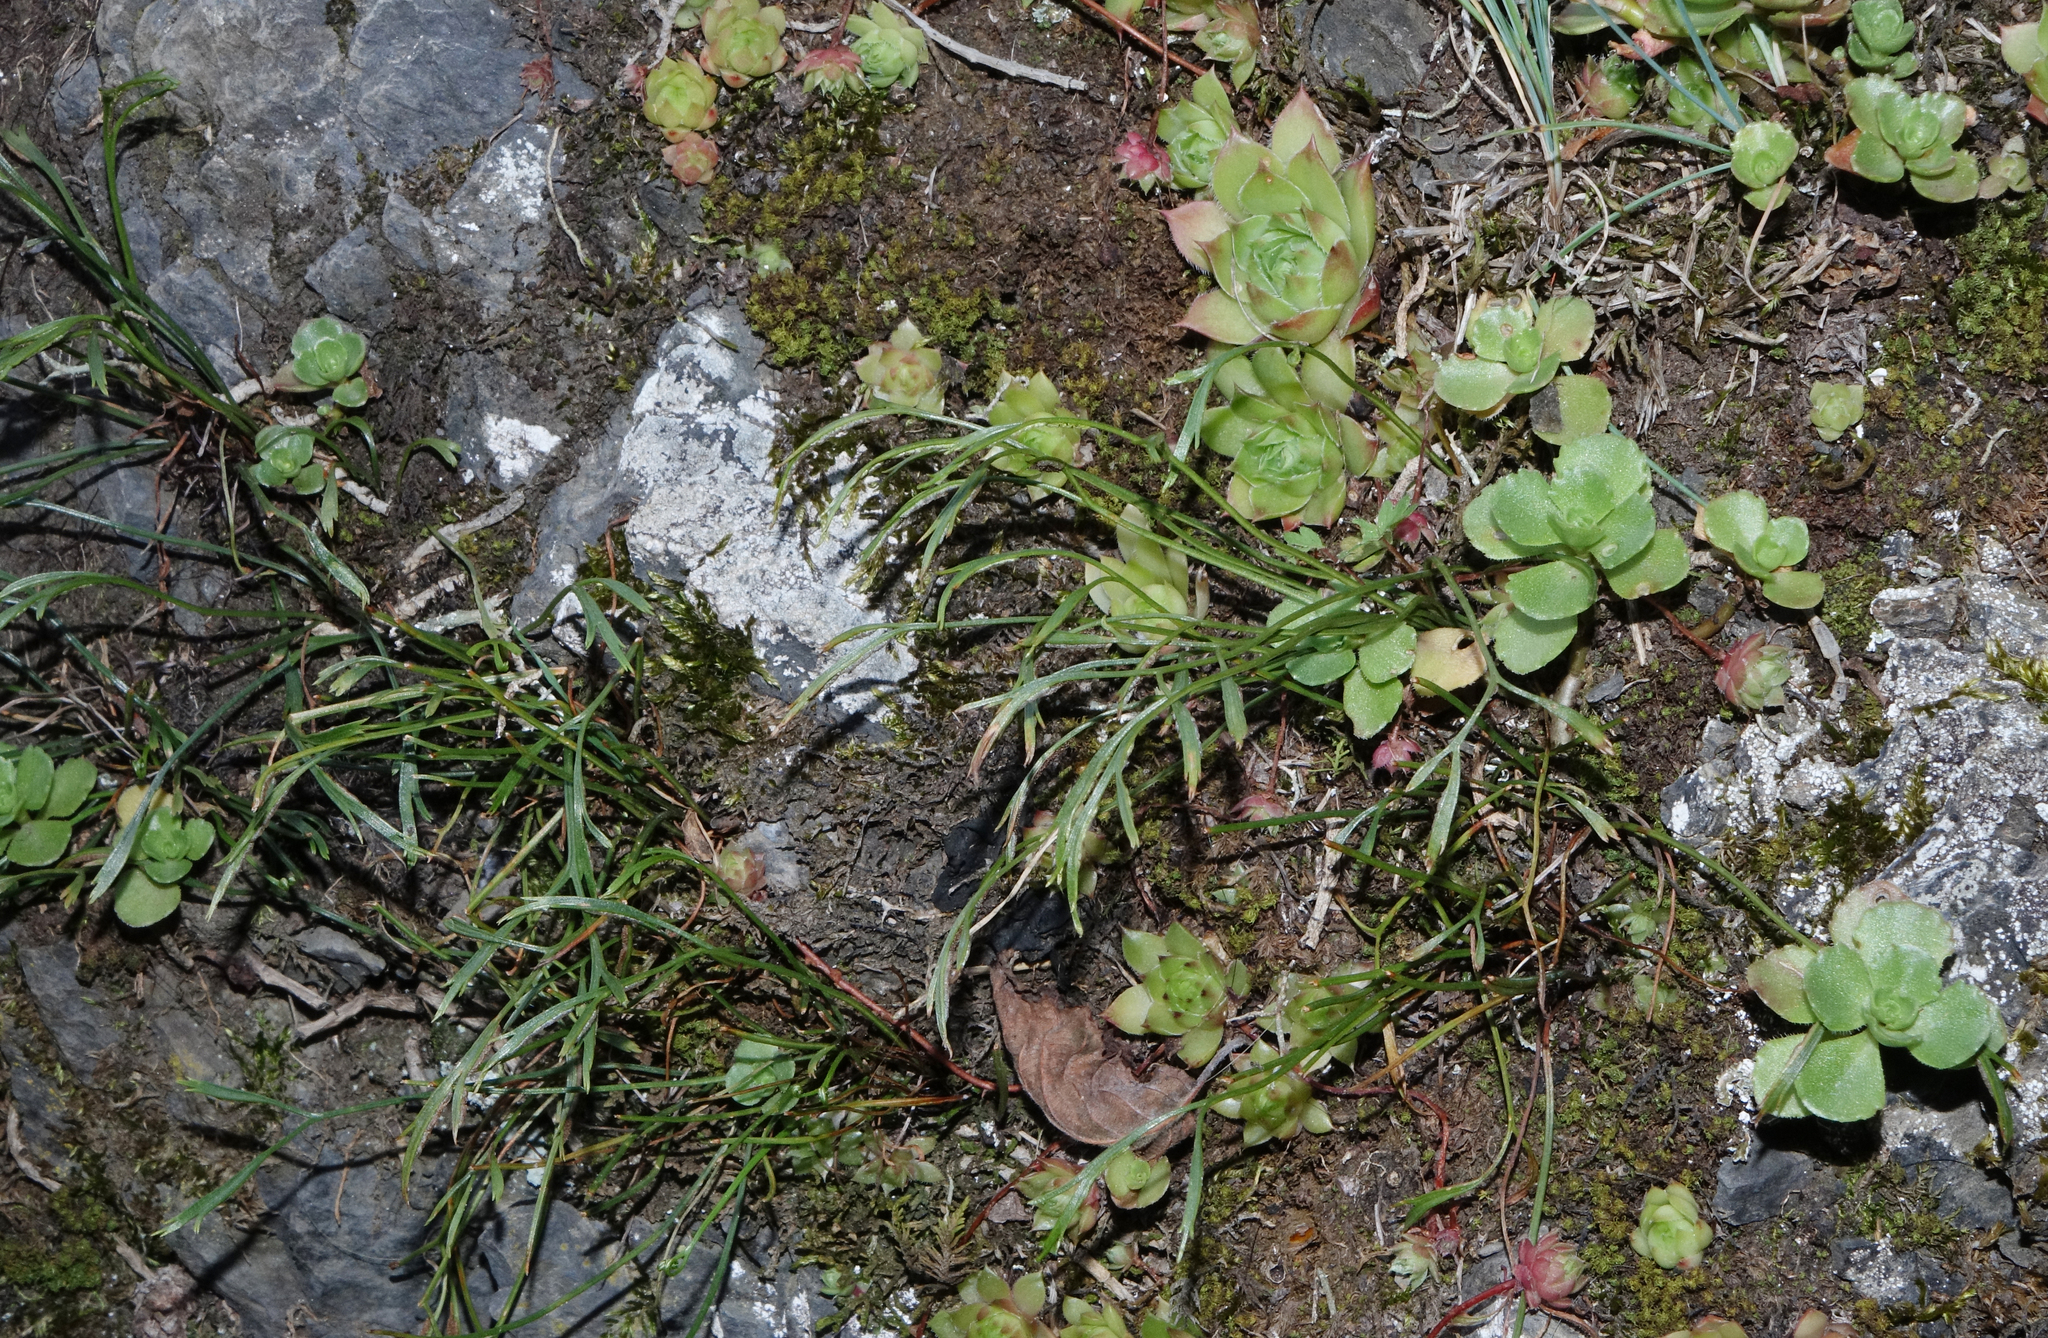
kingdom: Plantae
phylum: Tracheophyta
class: Polypodiopsida
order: Polypodiales
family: Aspleniaceae
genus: Asplenium
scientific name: Asplenium septentrionale
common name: Forked spleenwort
